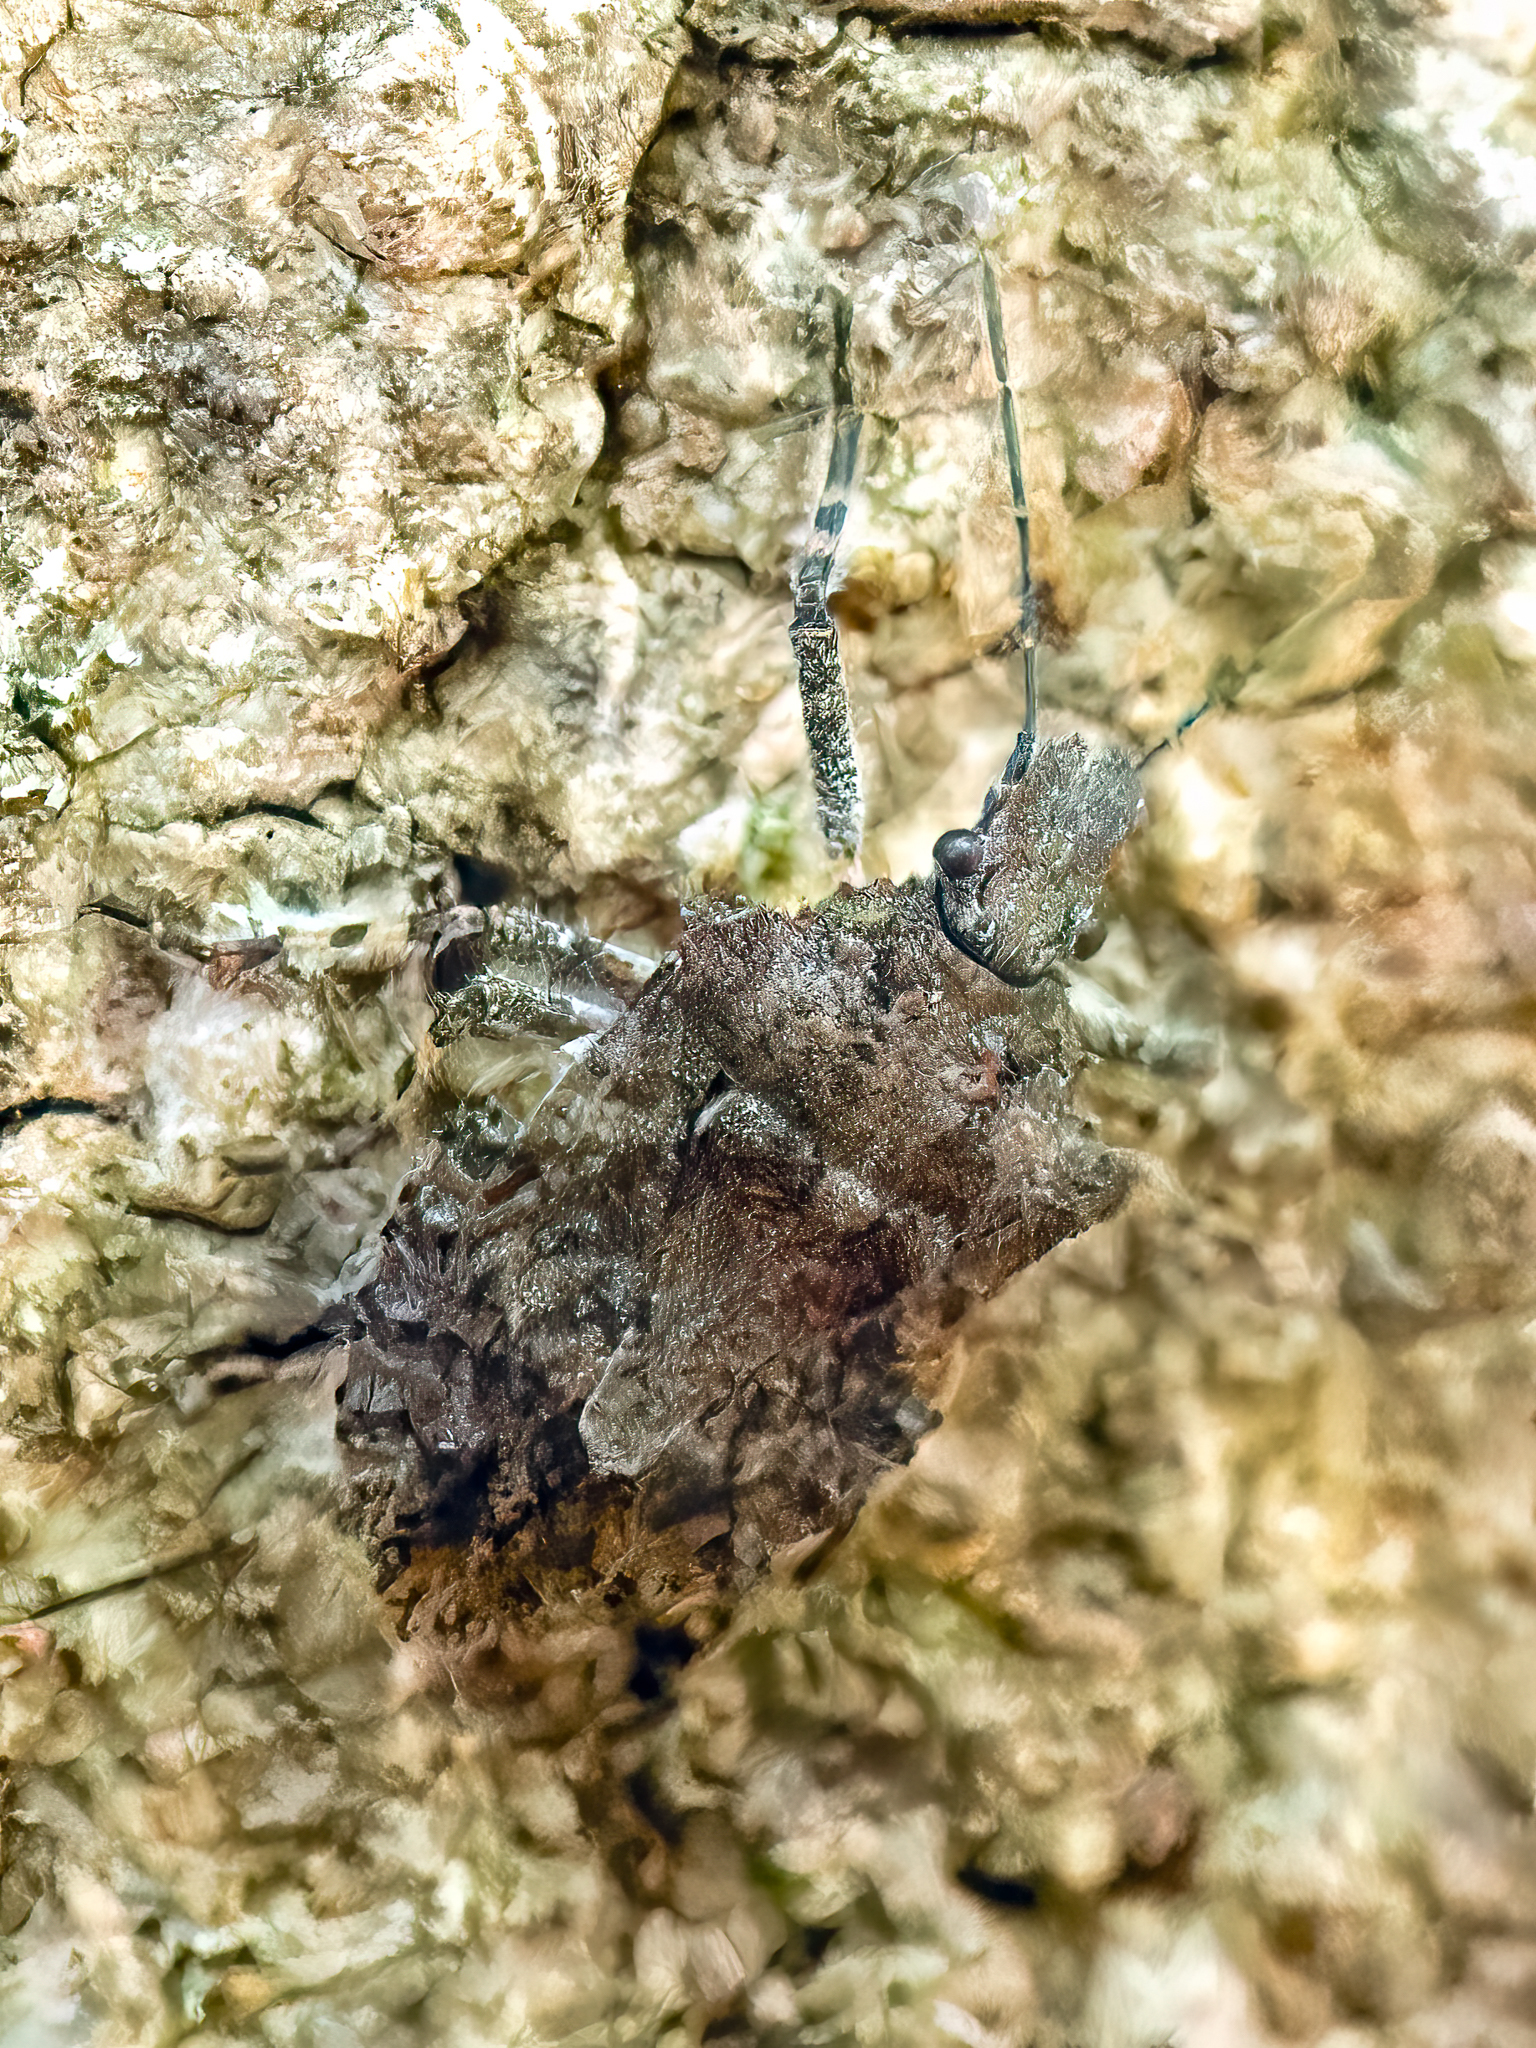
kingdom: Animalia
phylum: Arthropoda
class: Insecta
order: Hemiptera
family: Pentatomidae
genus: Brochymena
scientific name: Brochymena arborea
